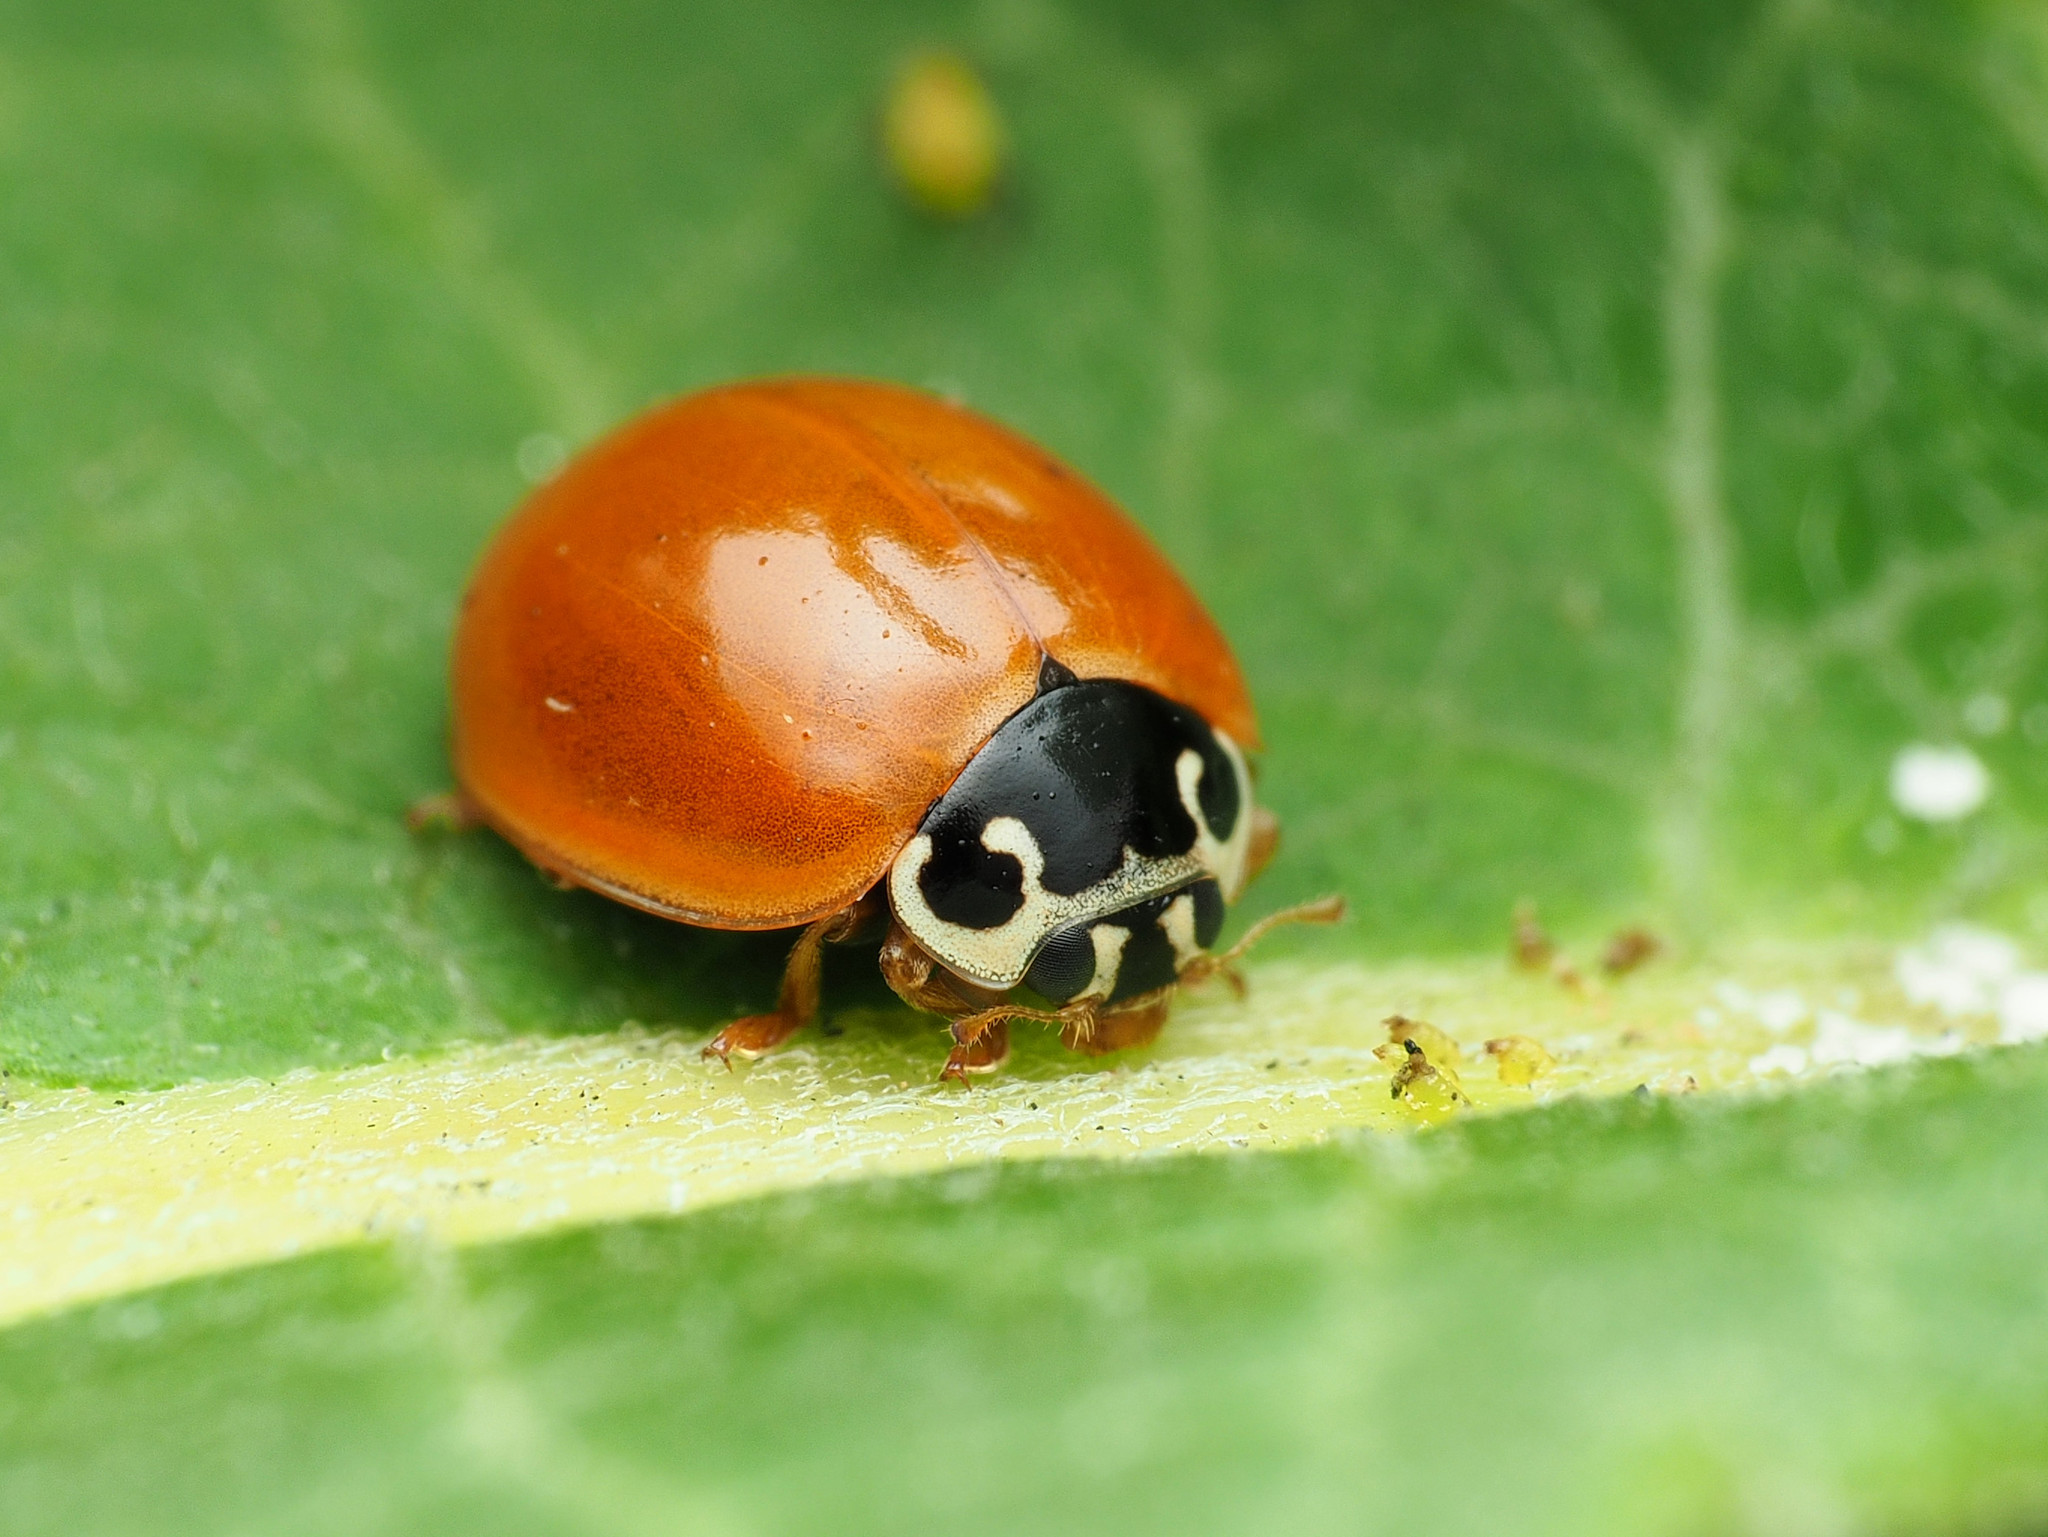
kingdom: Animalia
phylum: Arthropoda
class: Insecta
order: Coleoptera
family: Coccinellidae
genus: Cycloneda
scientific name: Cycloneda munda
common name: Polished lady beetle
